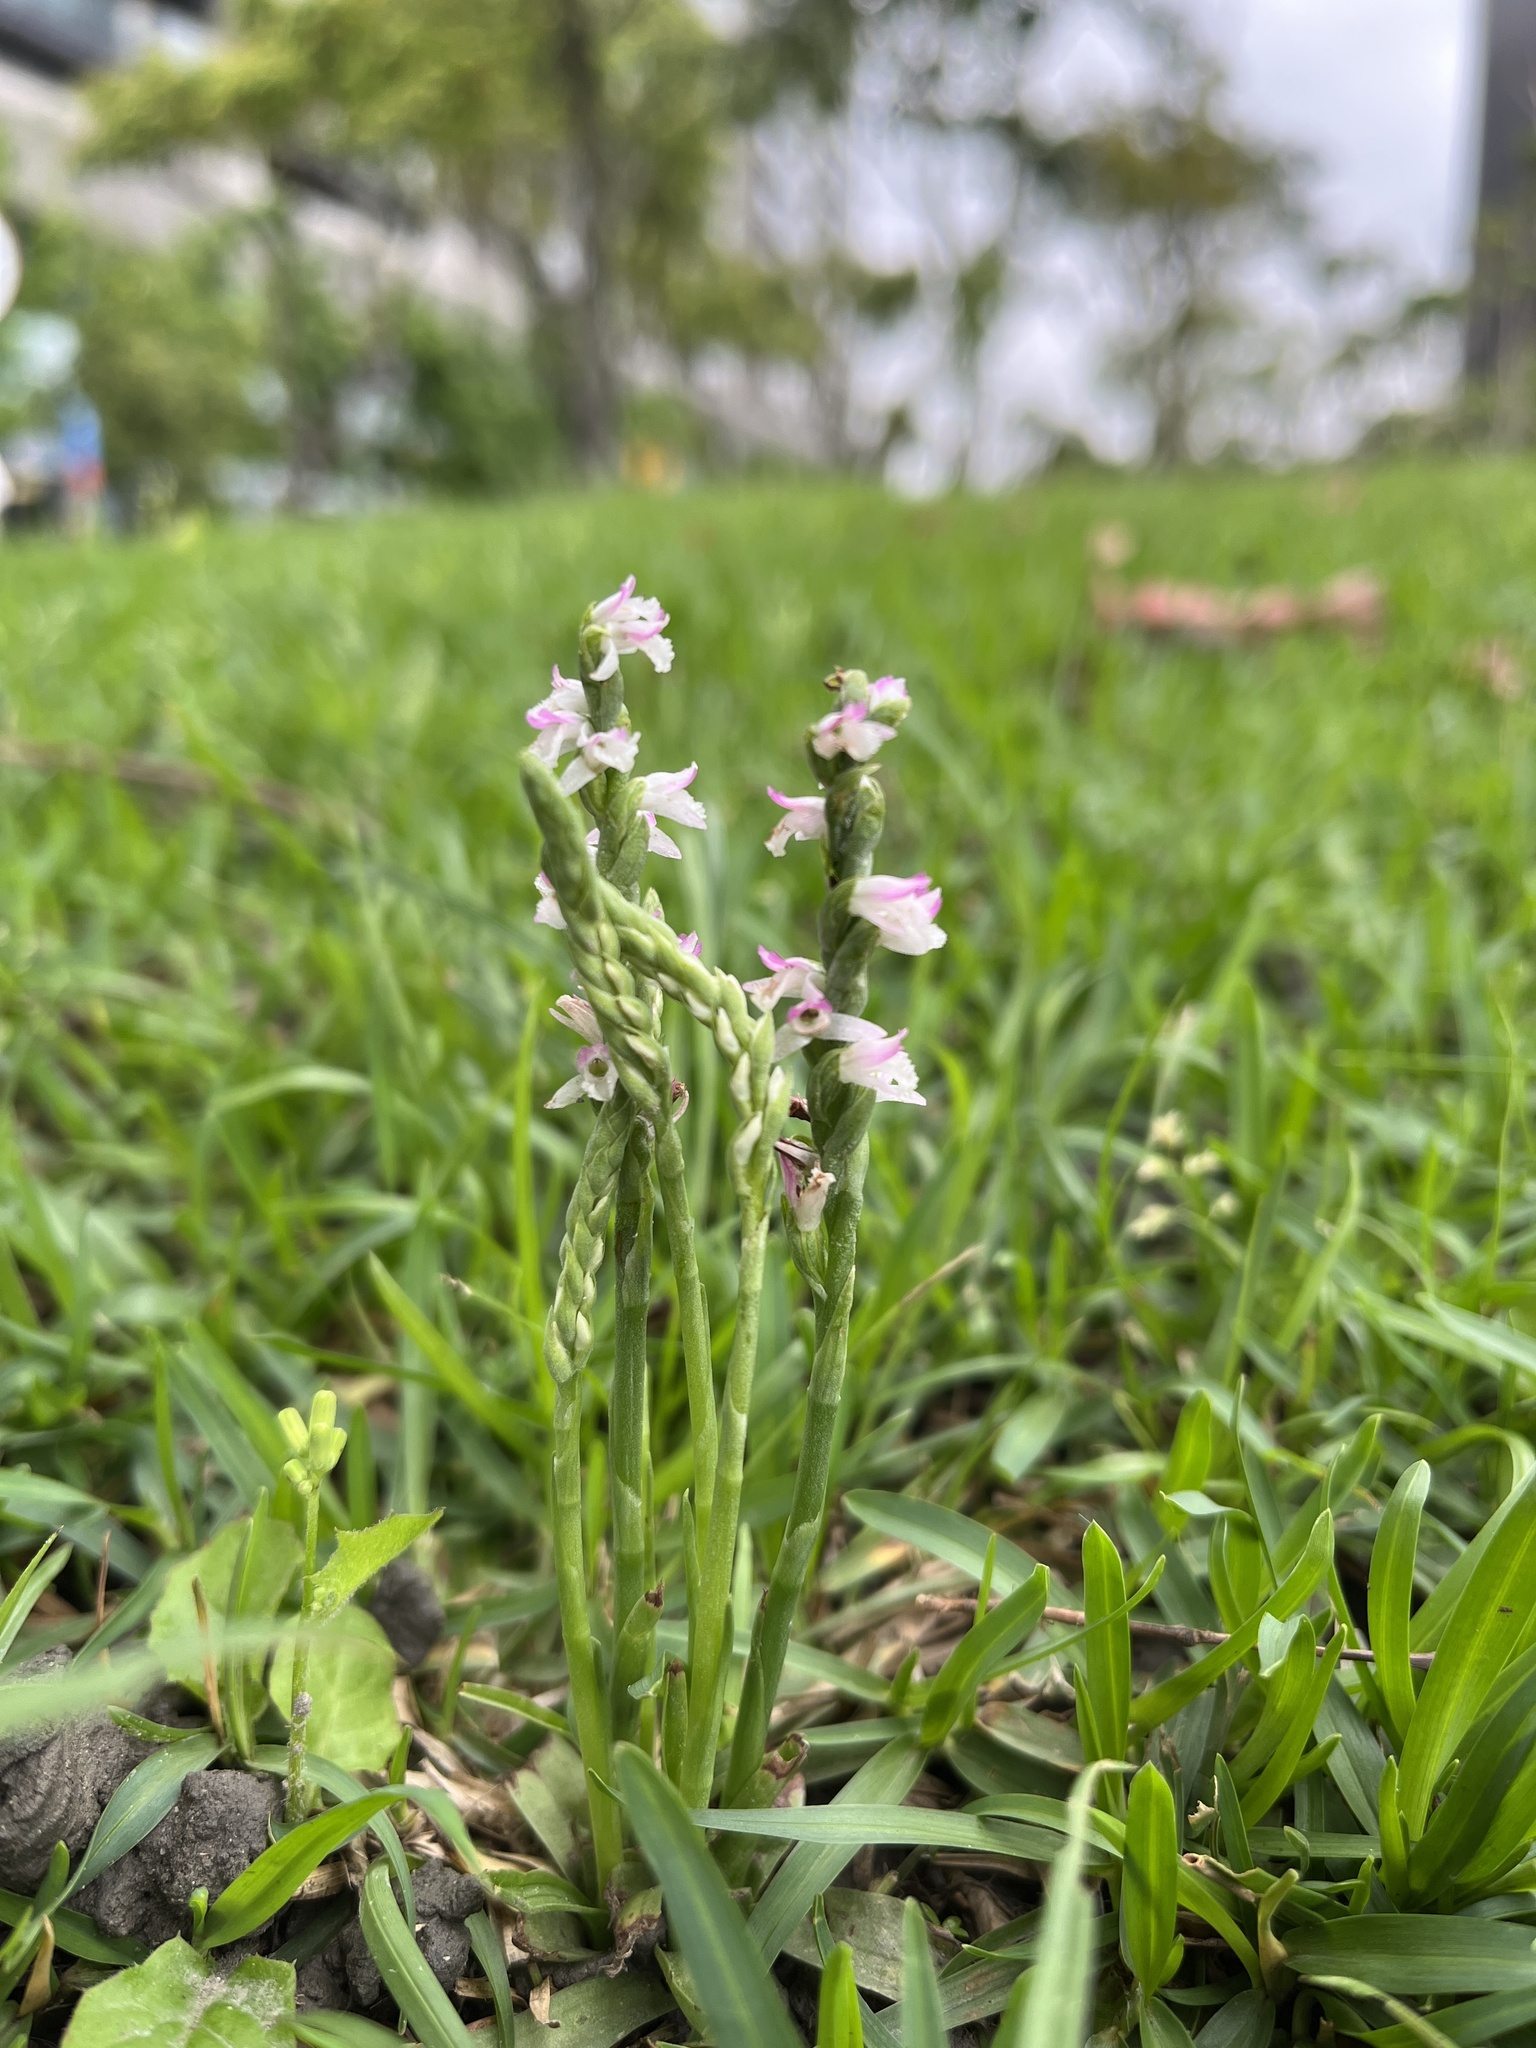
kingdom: Plantae
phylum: Tracheophyta
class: Liliopsida
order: Asparagales
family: Orchidaceae
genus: Spiranthes
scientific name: Spiranthes sinensis
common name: Chinese spiranthes
